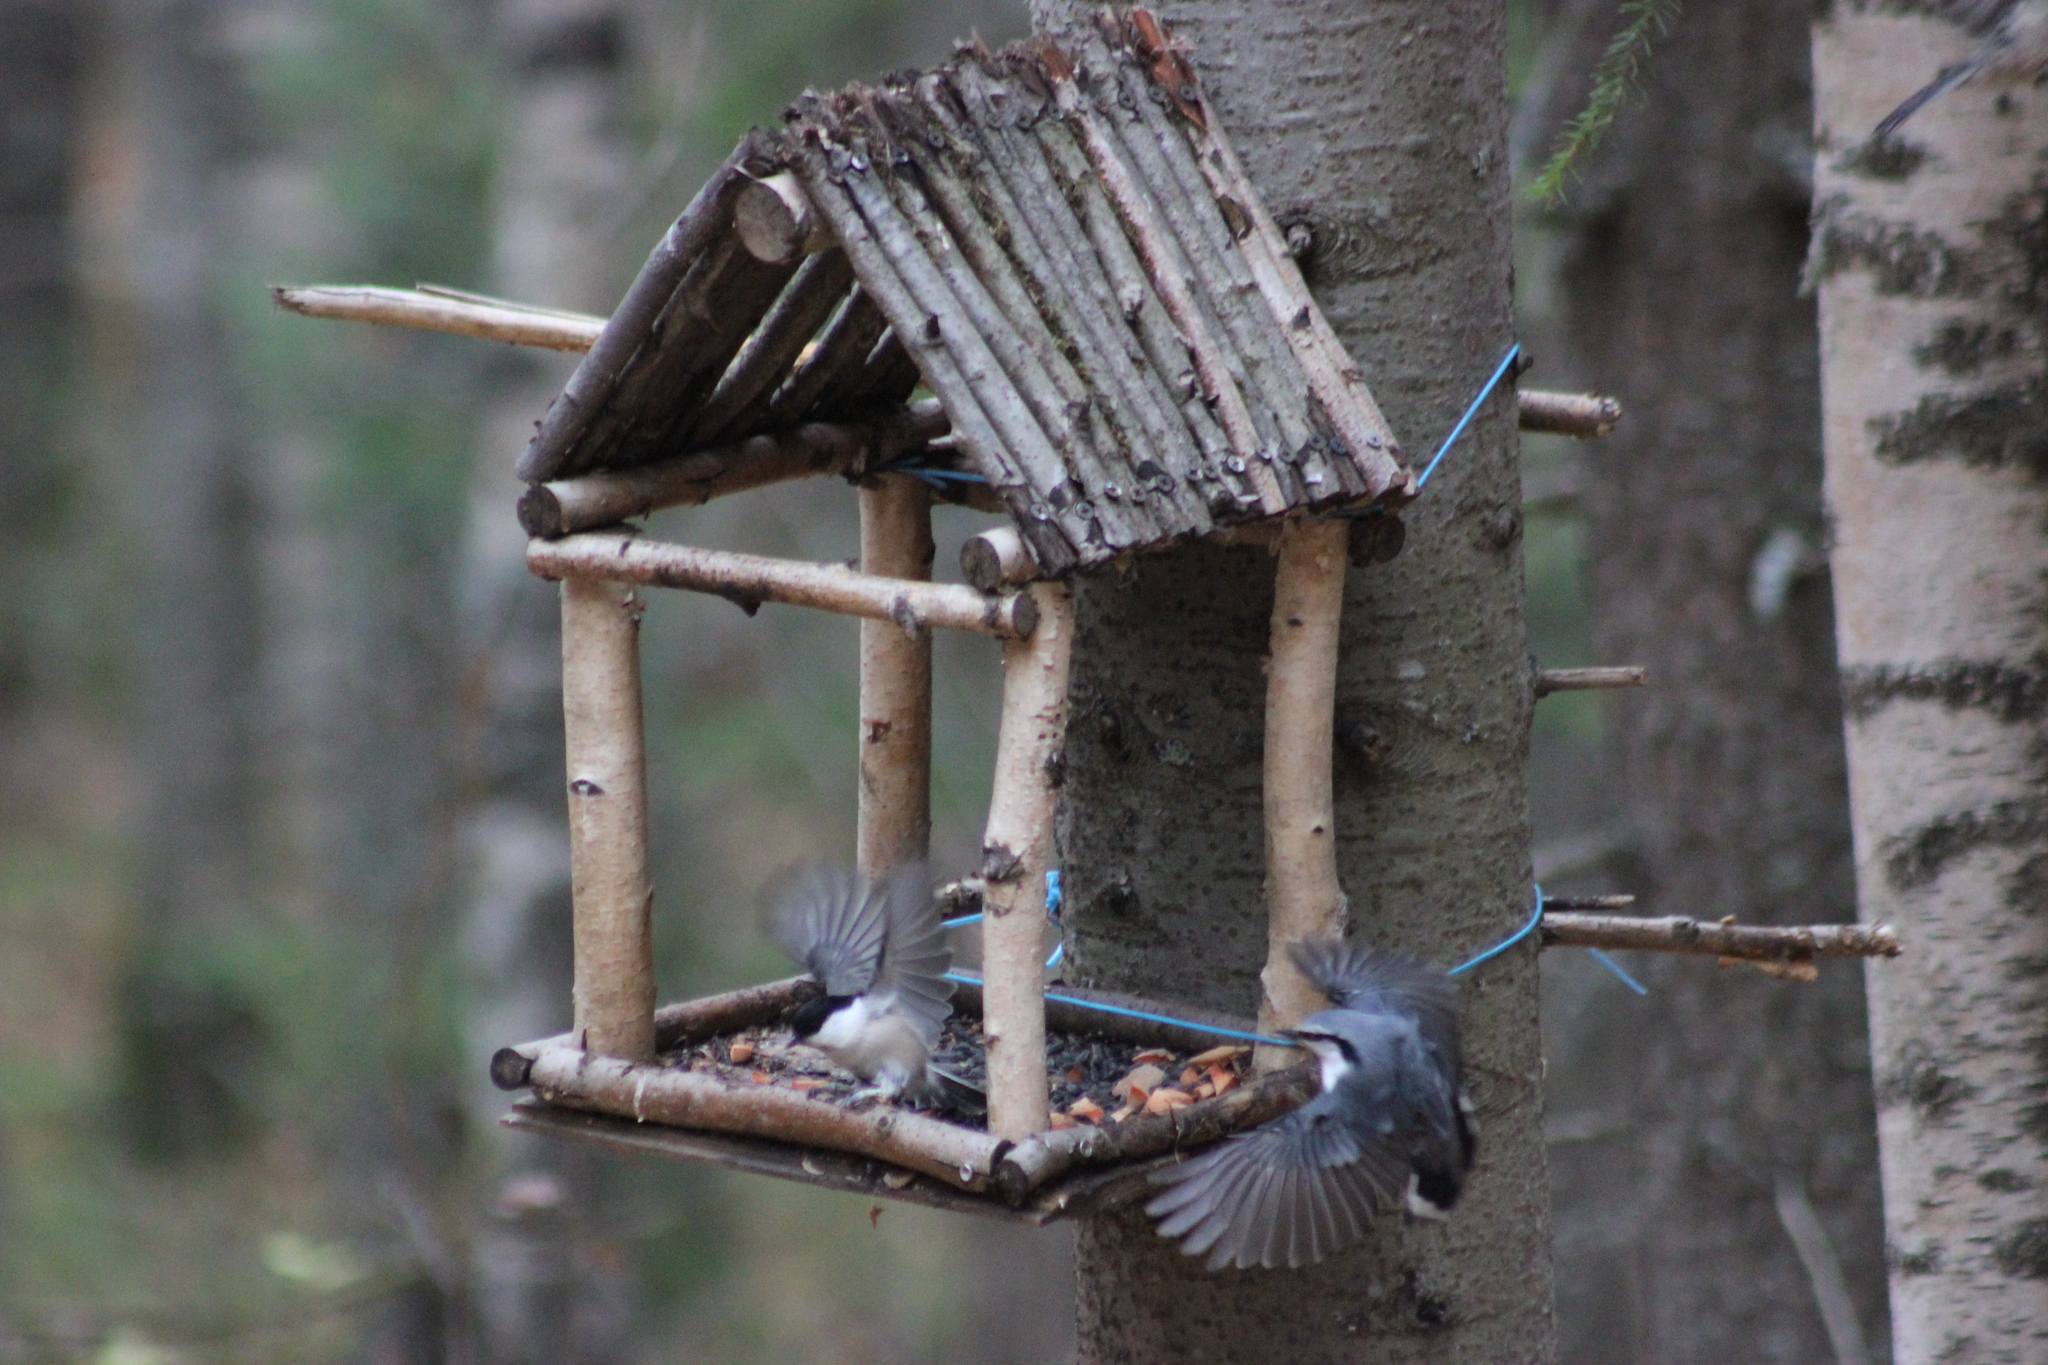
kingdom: Animalia
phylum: Chordata
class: Aves
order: Passeriformes
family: Sittidae
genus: Sitta
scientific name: Sitta europaea
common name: Eurasian nuthatch
